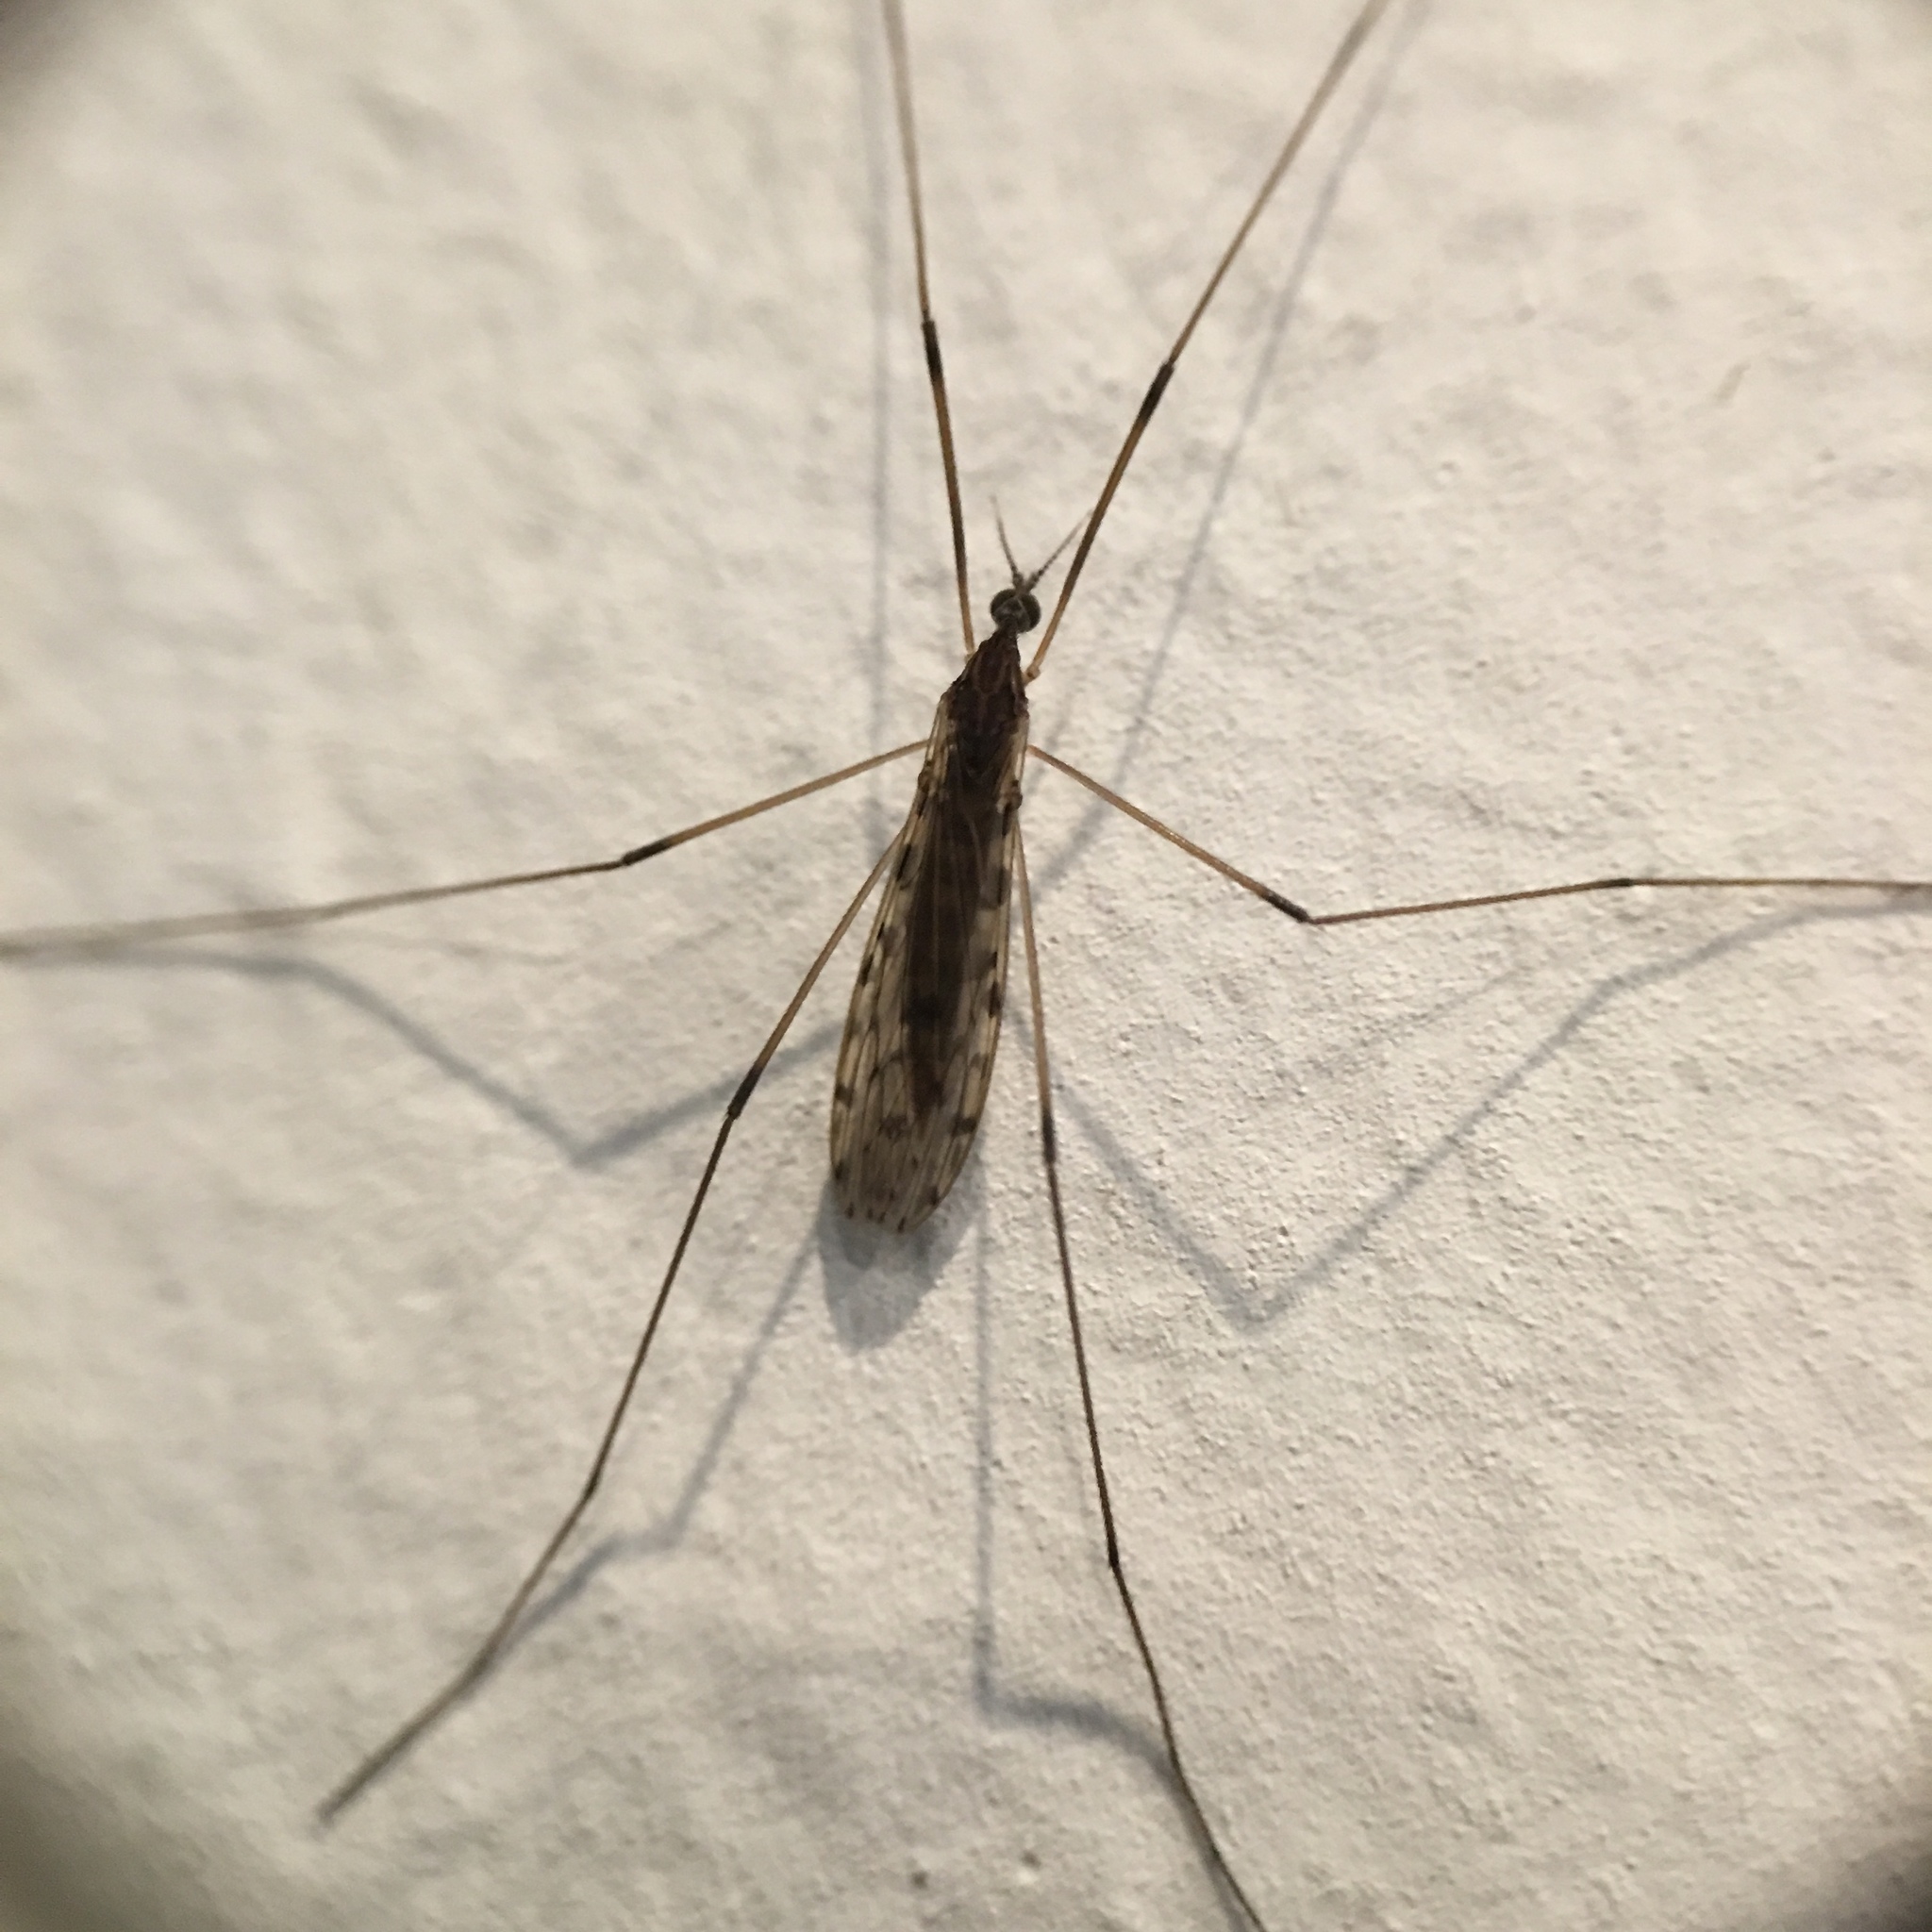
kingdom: Animalia
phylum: Arthropoda
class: Insecta
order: Diptera
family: Limoniidae
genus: Rhipidia
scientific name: Rhipidia domestica
